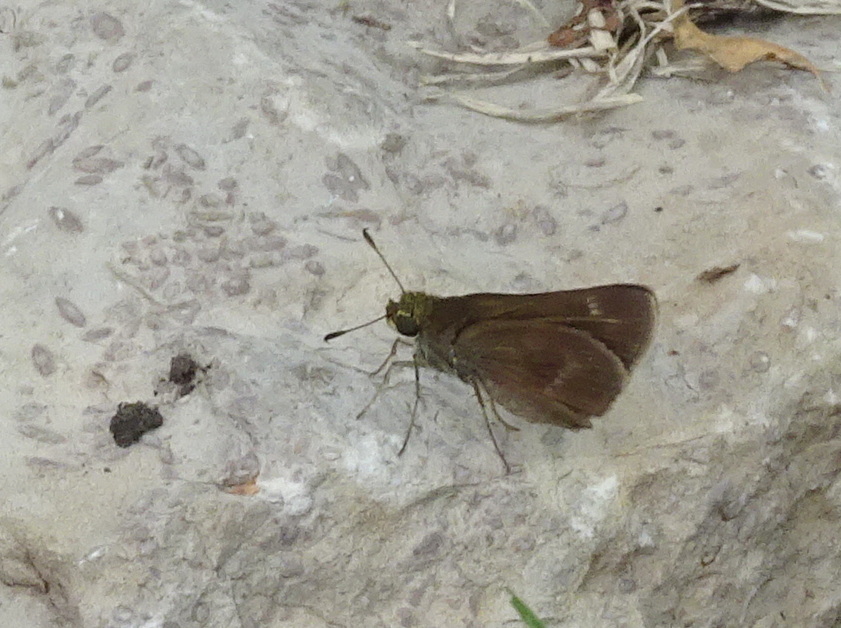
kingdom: Animalia
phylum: Arthropoda
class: Insecta
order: Lepidoptera
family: Hesperiidae
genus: Euphyes
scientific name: Euphyes vestris
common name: Dun skipper
